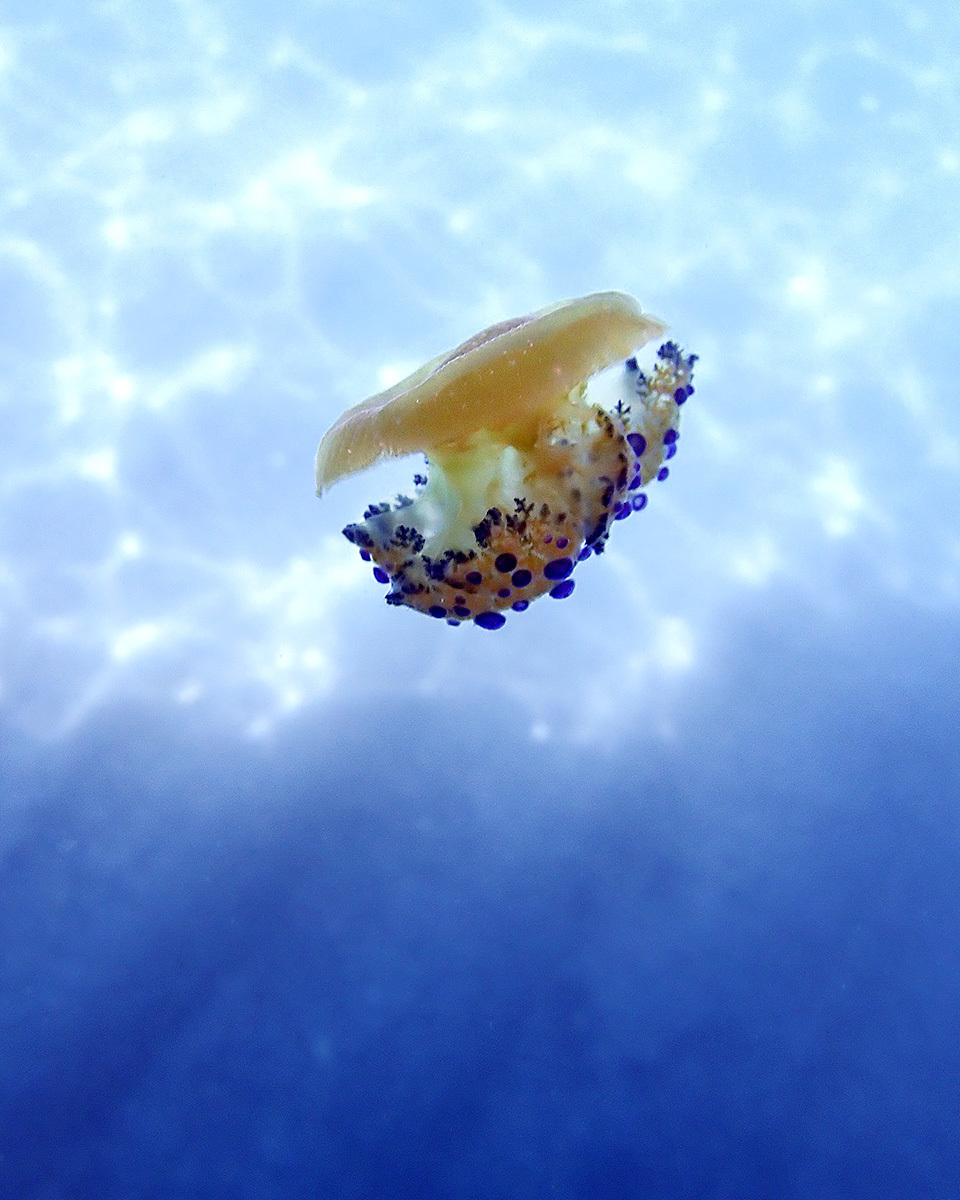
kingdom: Animalia
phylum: Cnidaria
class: Scyphozoa
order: Rhizostomeae
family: Cepheidae
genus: Cotylorhiza
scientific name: Cotylorhiza tuberculata
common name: Mediterranean jelly
